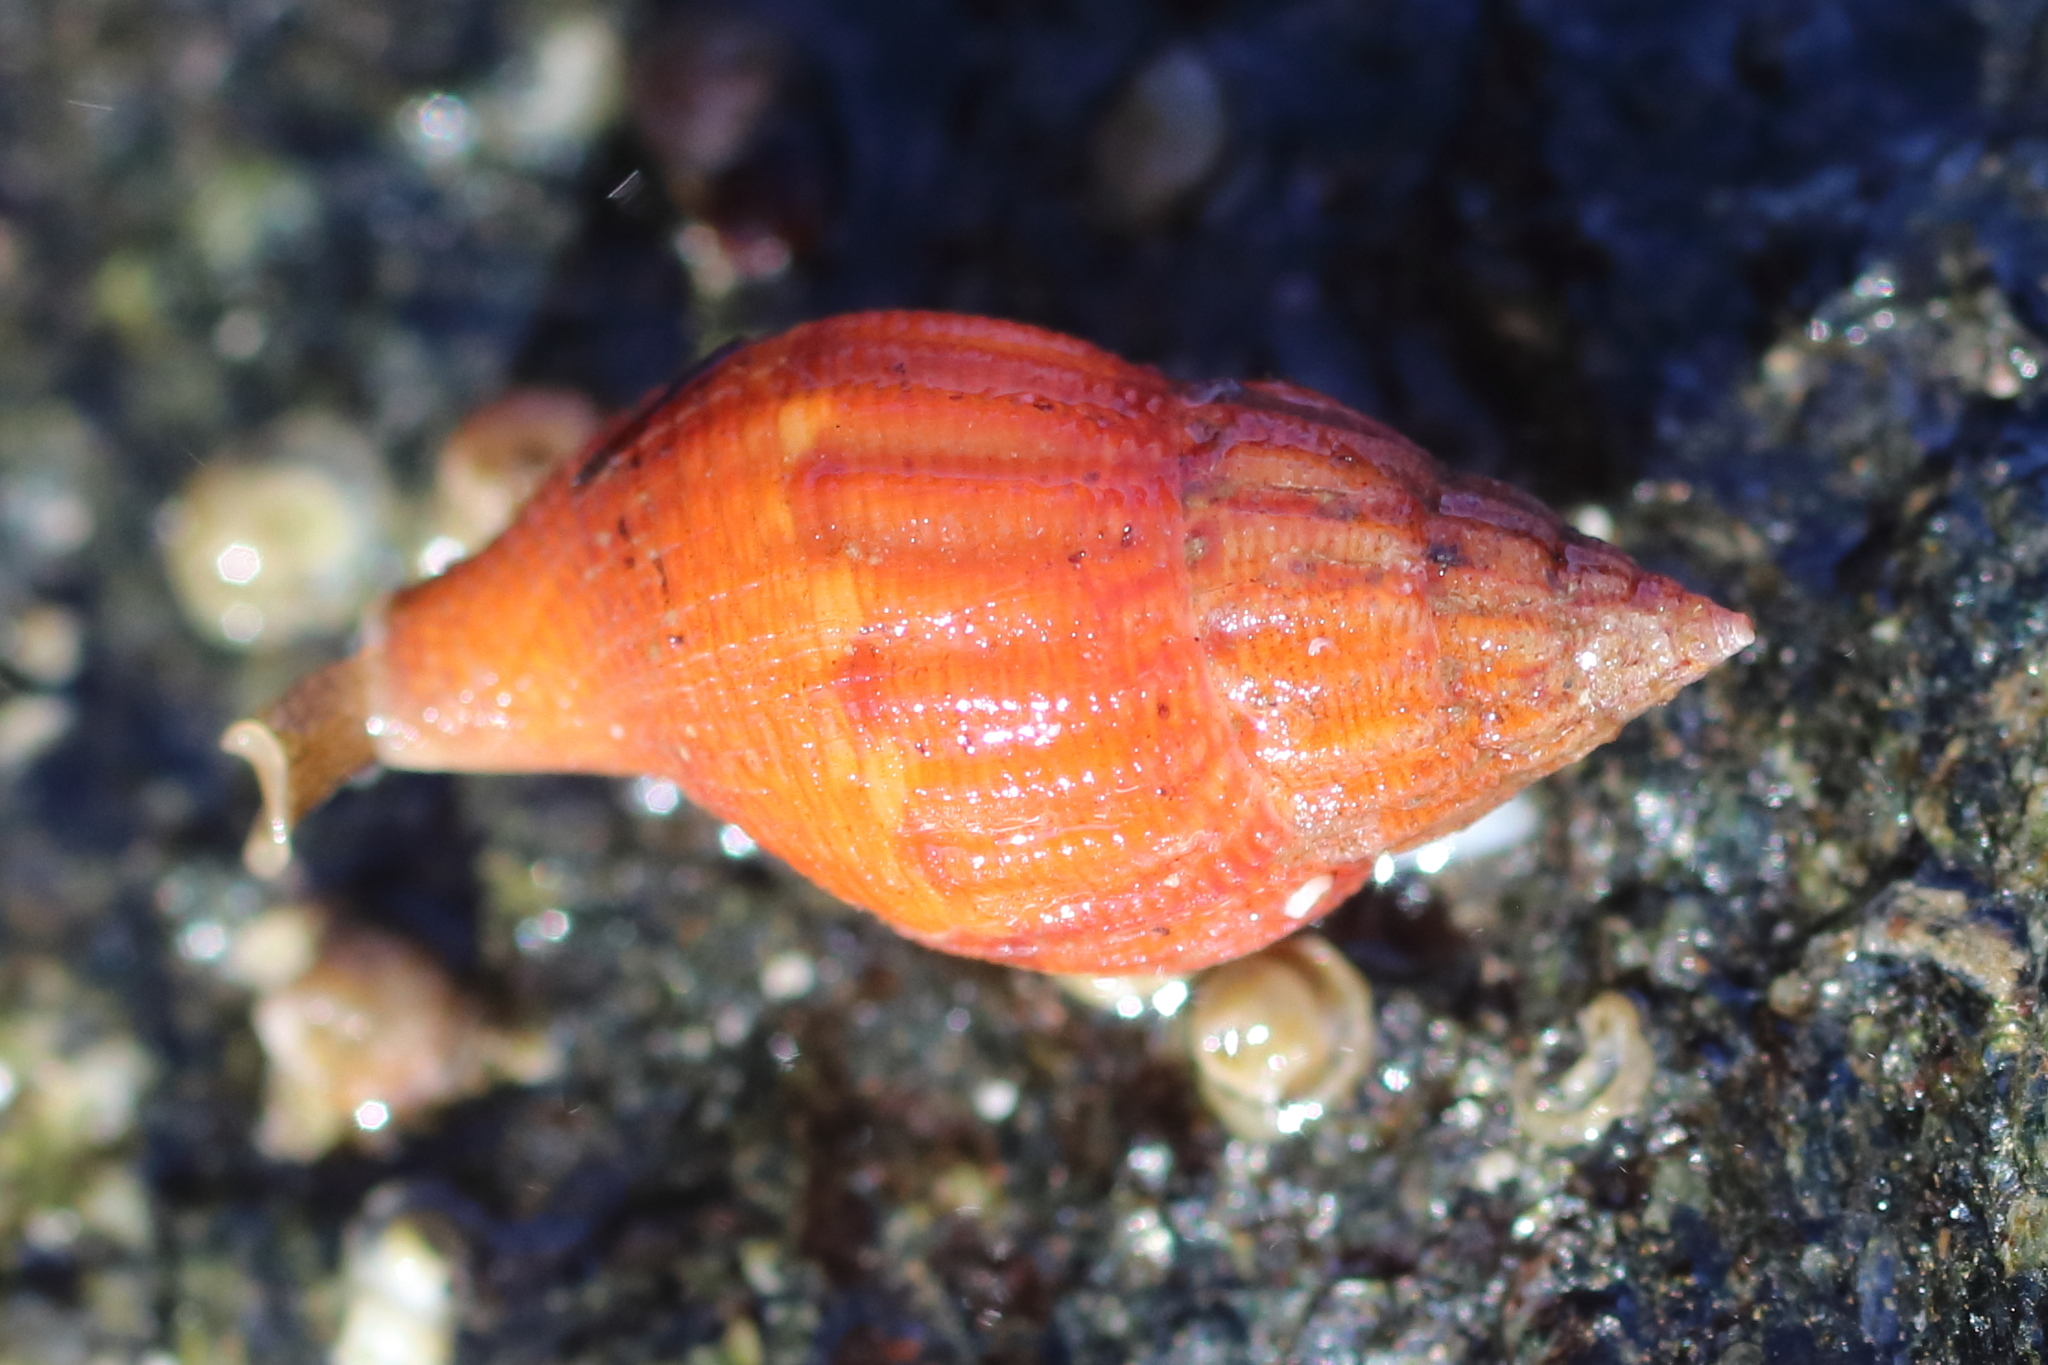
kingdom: Animalia
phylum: Mollusca
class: Gastropoda
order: Neogastropoda
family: Columbellidae
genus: Amphissa
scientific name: Amphissa columbiana
